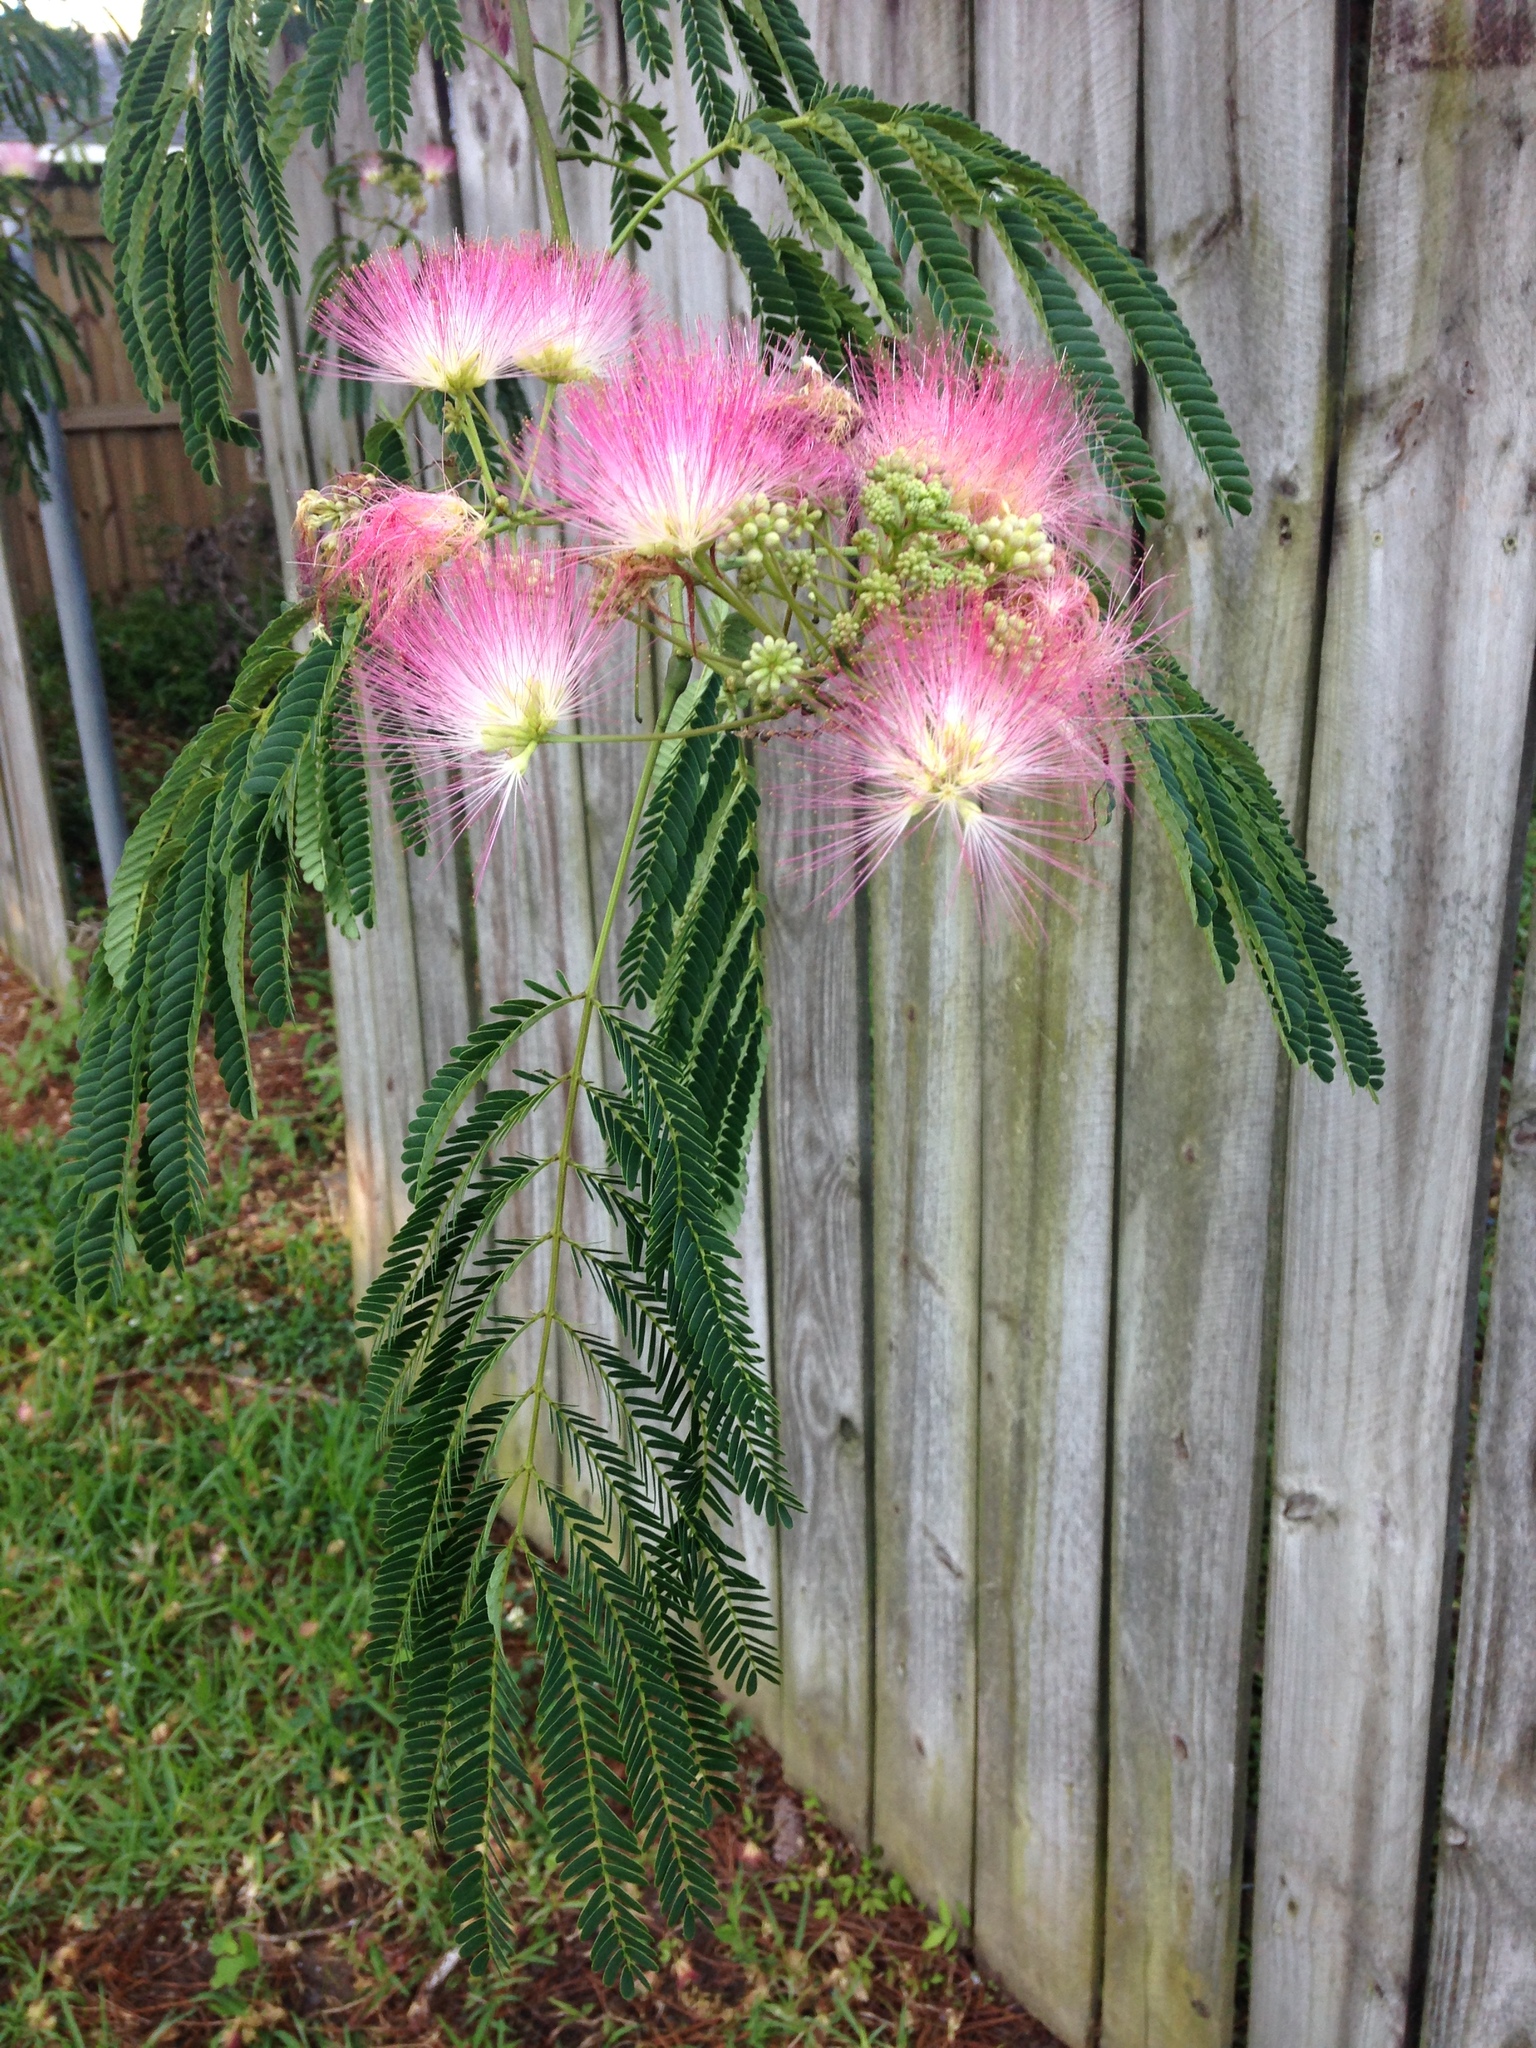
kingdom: Plantae
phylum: Tracheophyta
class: Magnoliopsida
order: Fabales
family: Fabaceae
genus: Albizia
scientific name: Albizia julibrissin
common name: Silktree
